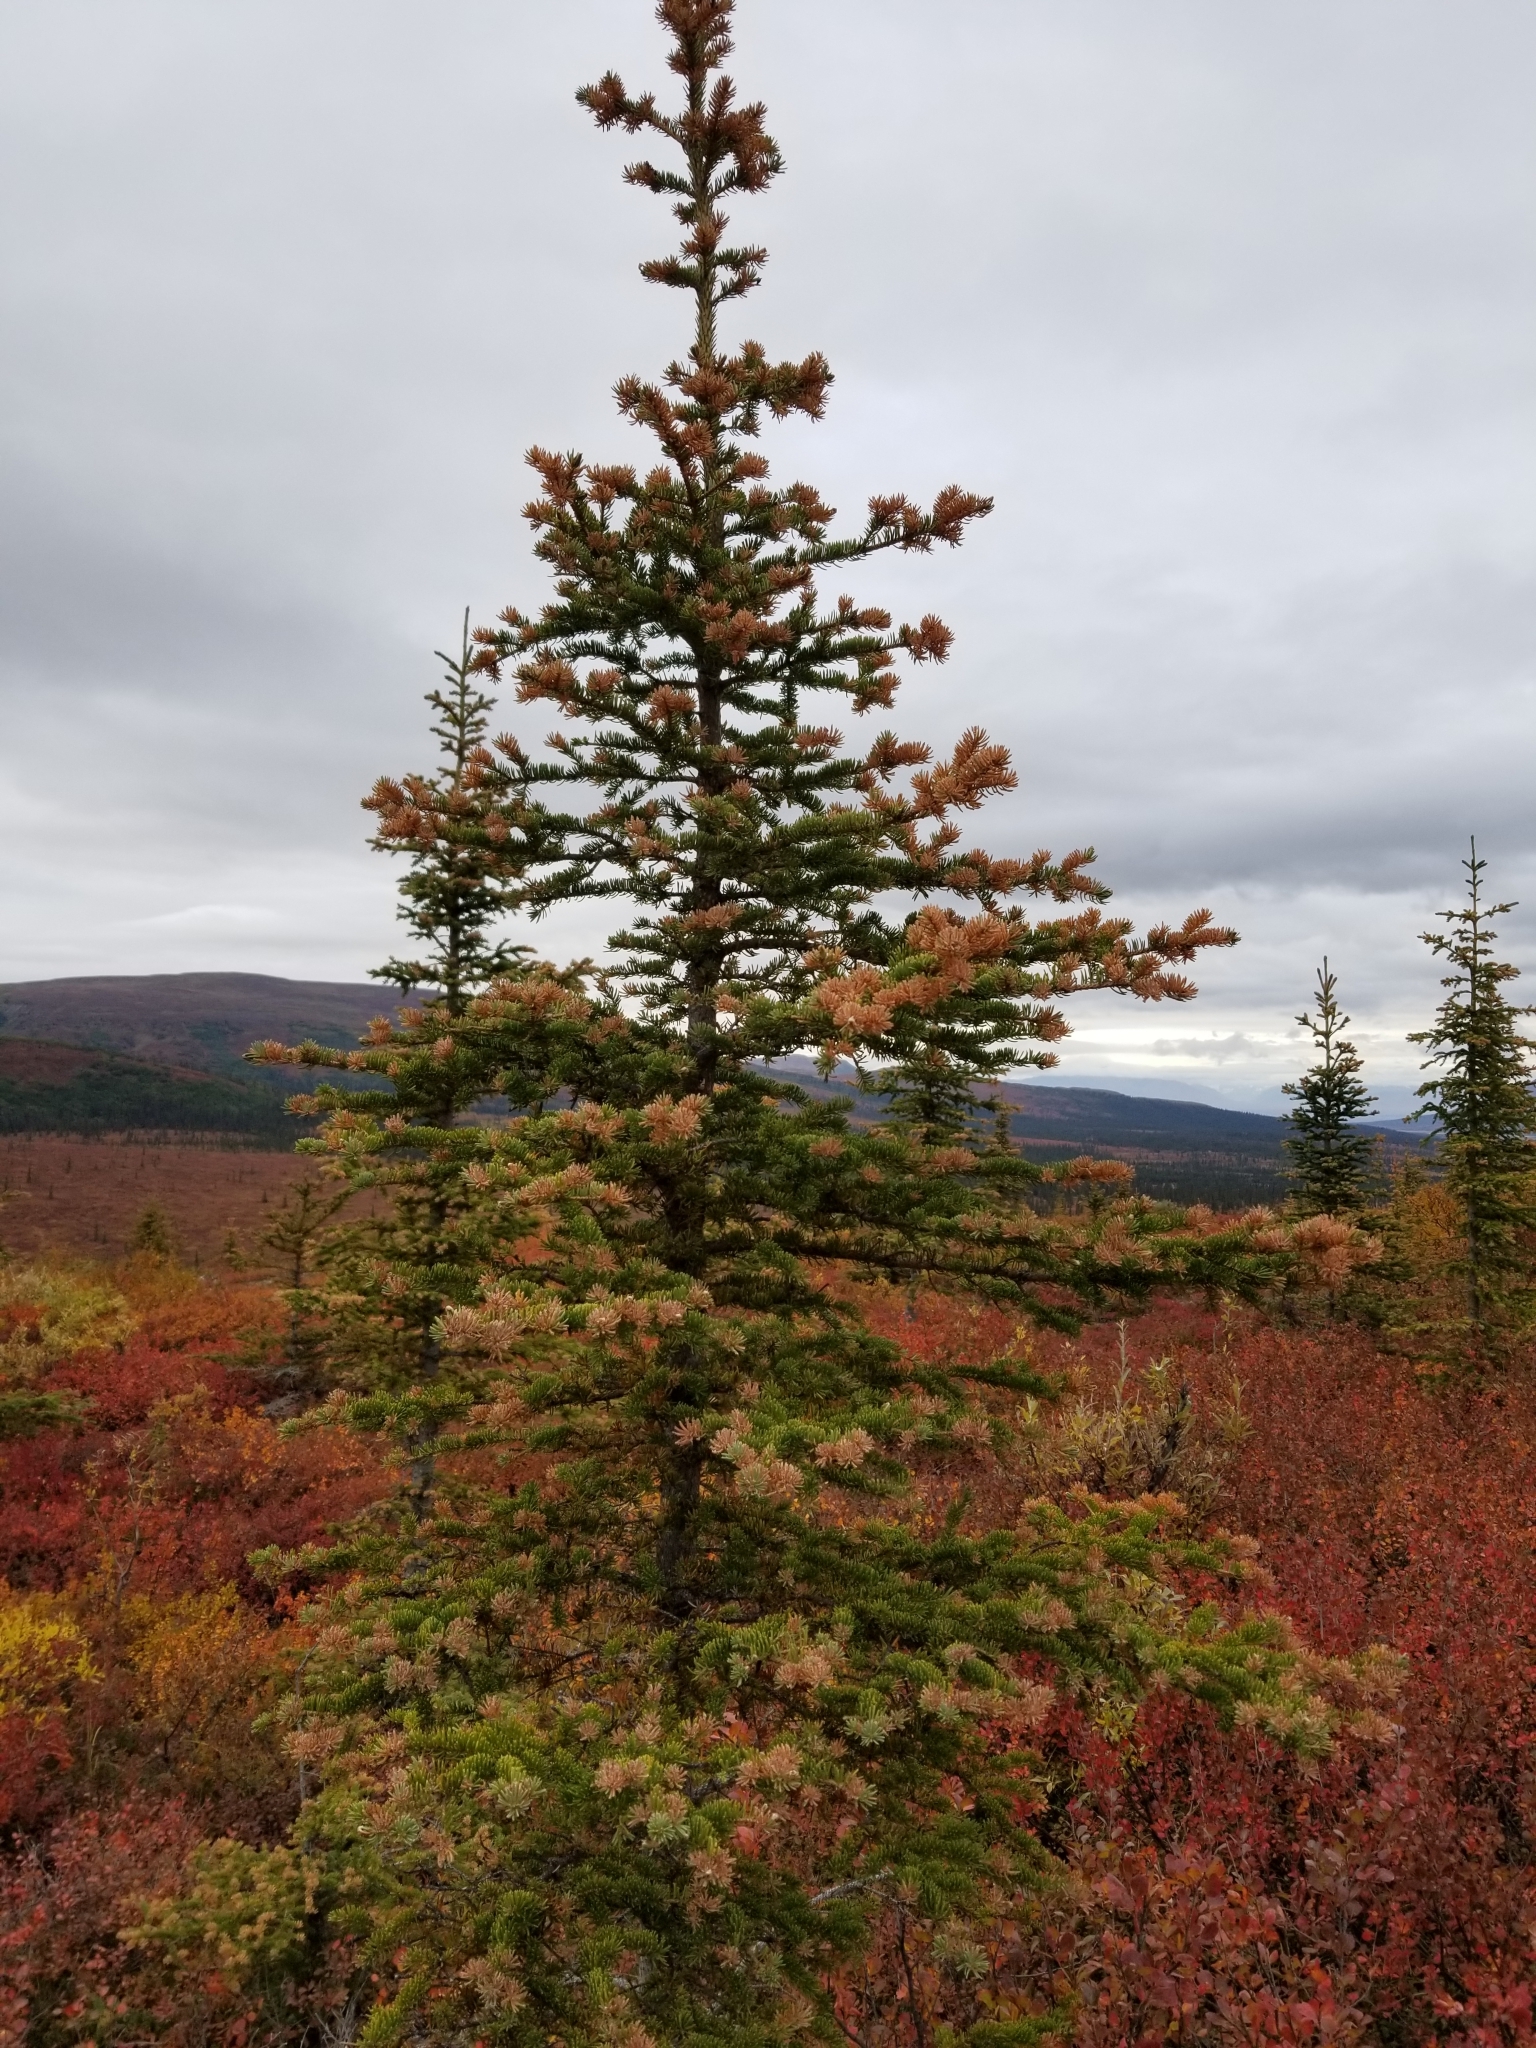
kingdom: Fungi
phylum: Basidiomycota
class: Pucciniomycetes
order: Pucciniales
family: Coleosporiaceae
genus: Chrysomyxa
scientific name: Chrysomyxa ledicola
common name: Spruce-labrador tea needle rust
